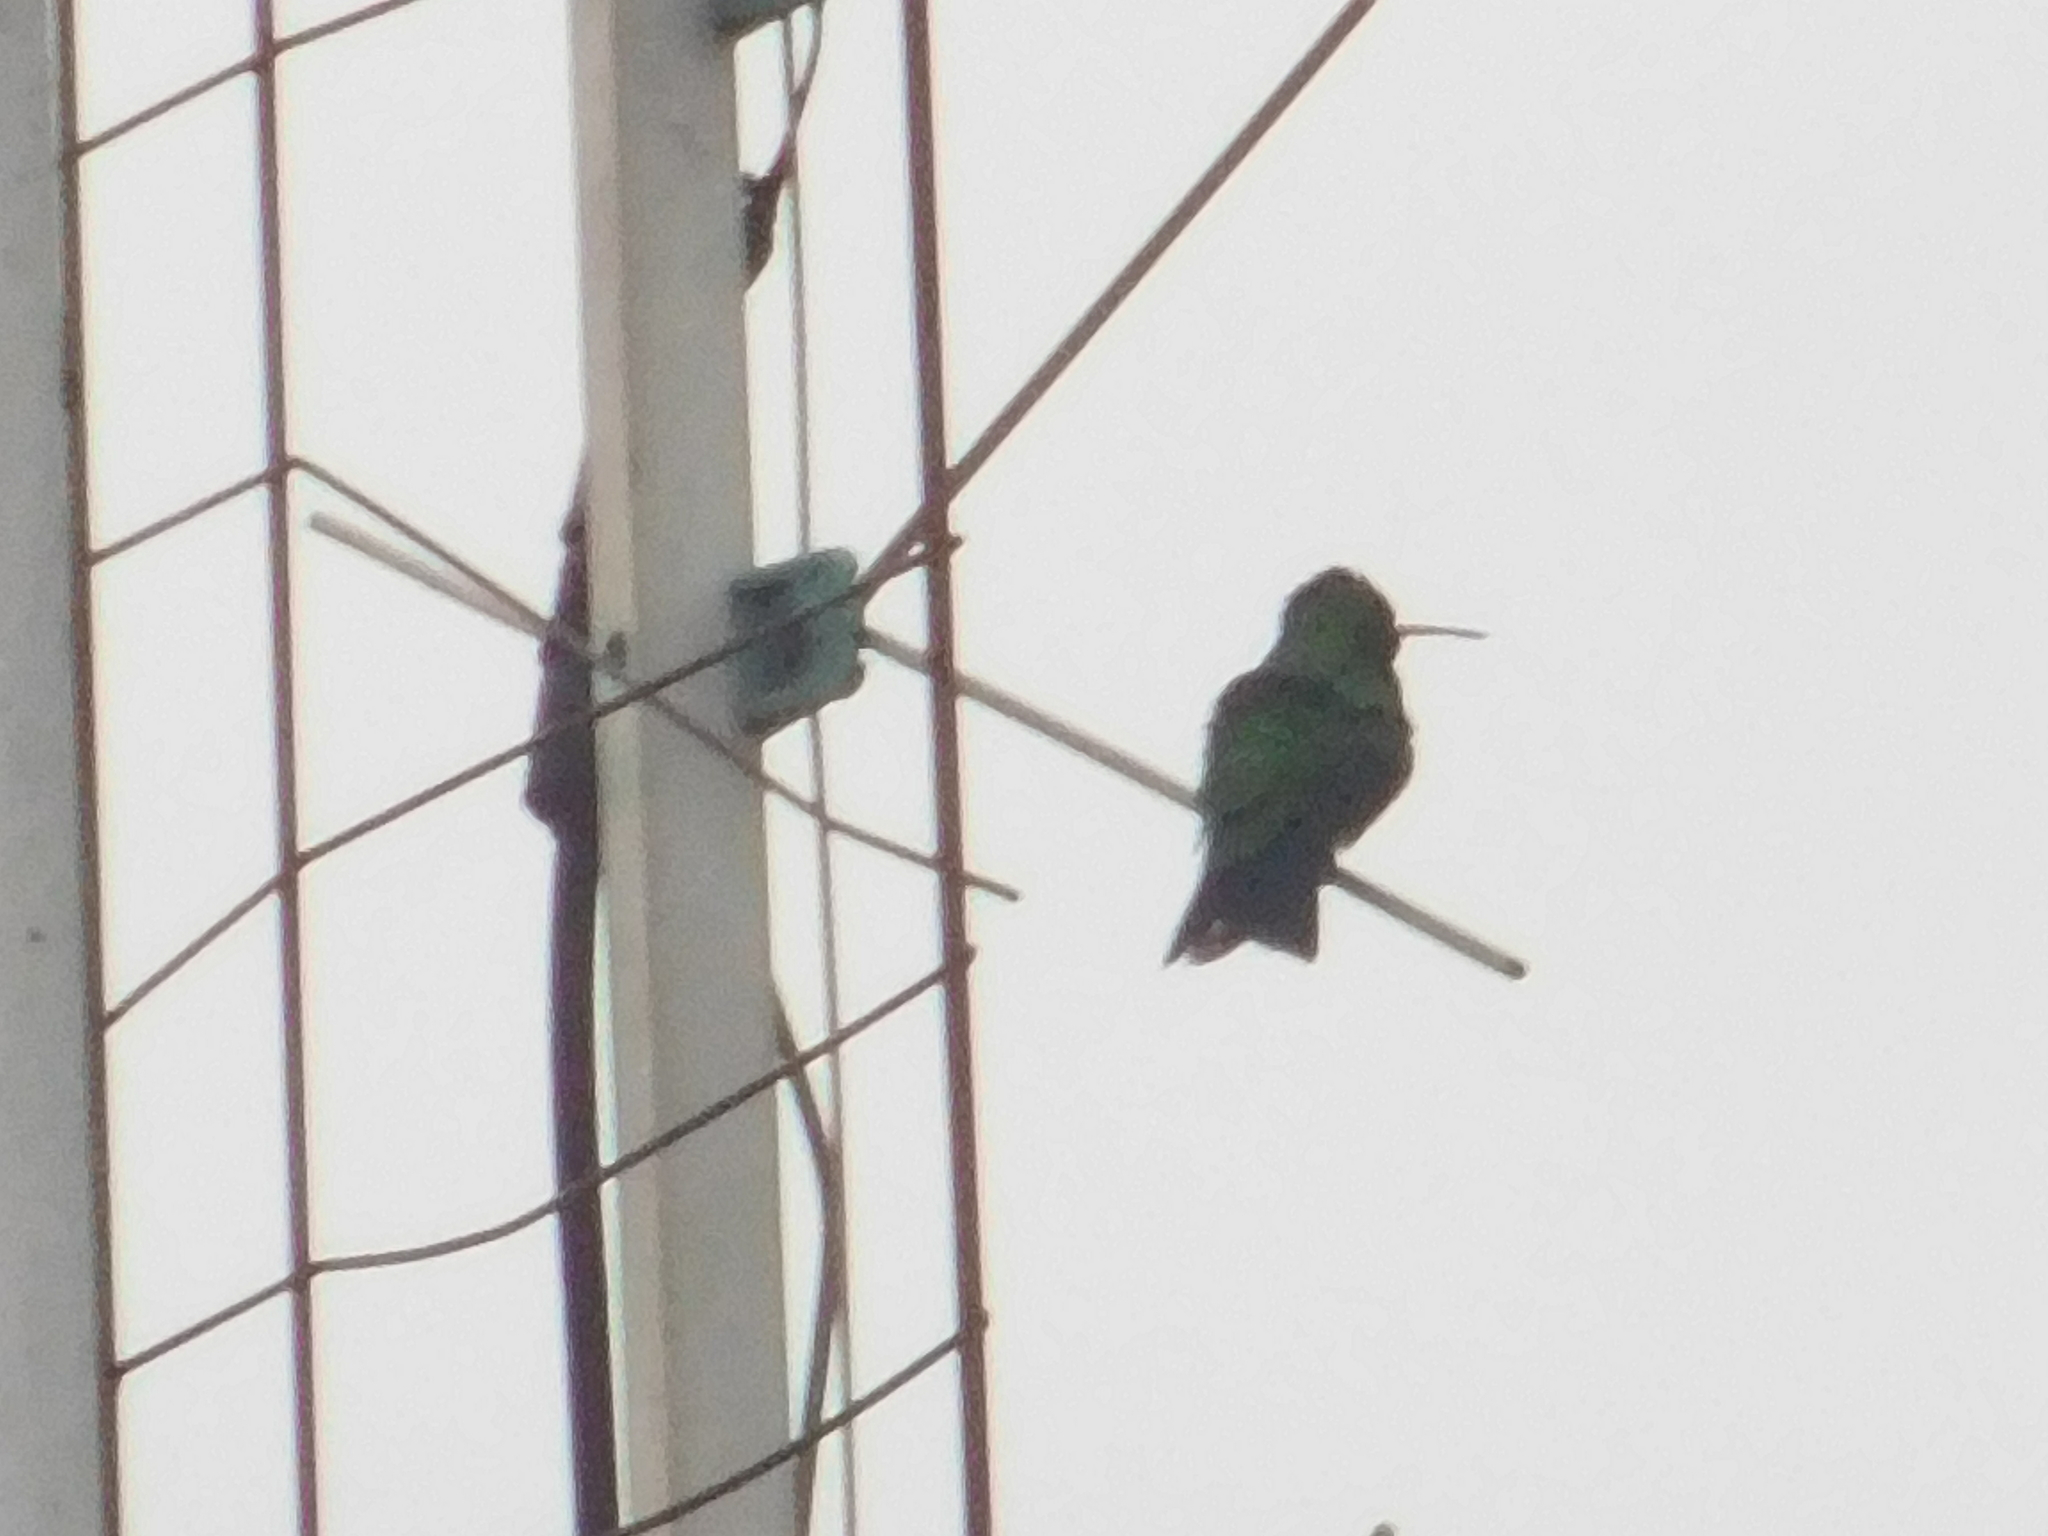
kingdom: Animalia
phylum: Chordata
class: Aves
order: Apodiformes
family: Trochilidae
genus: Chlorostilbon
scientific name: Chlorostilbon lucidus
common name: Glittering-bellied emerald
